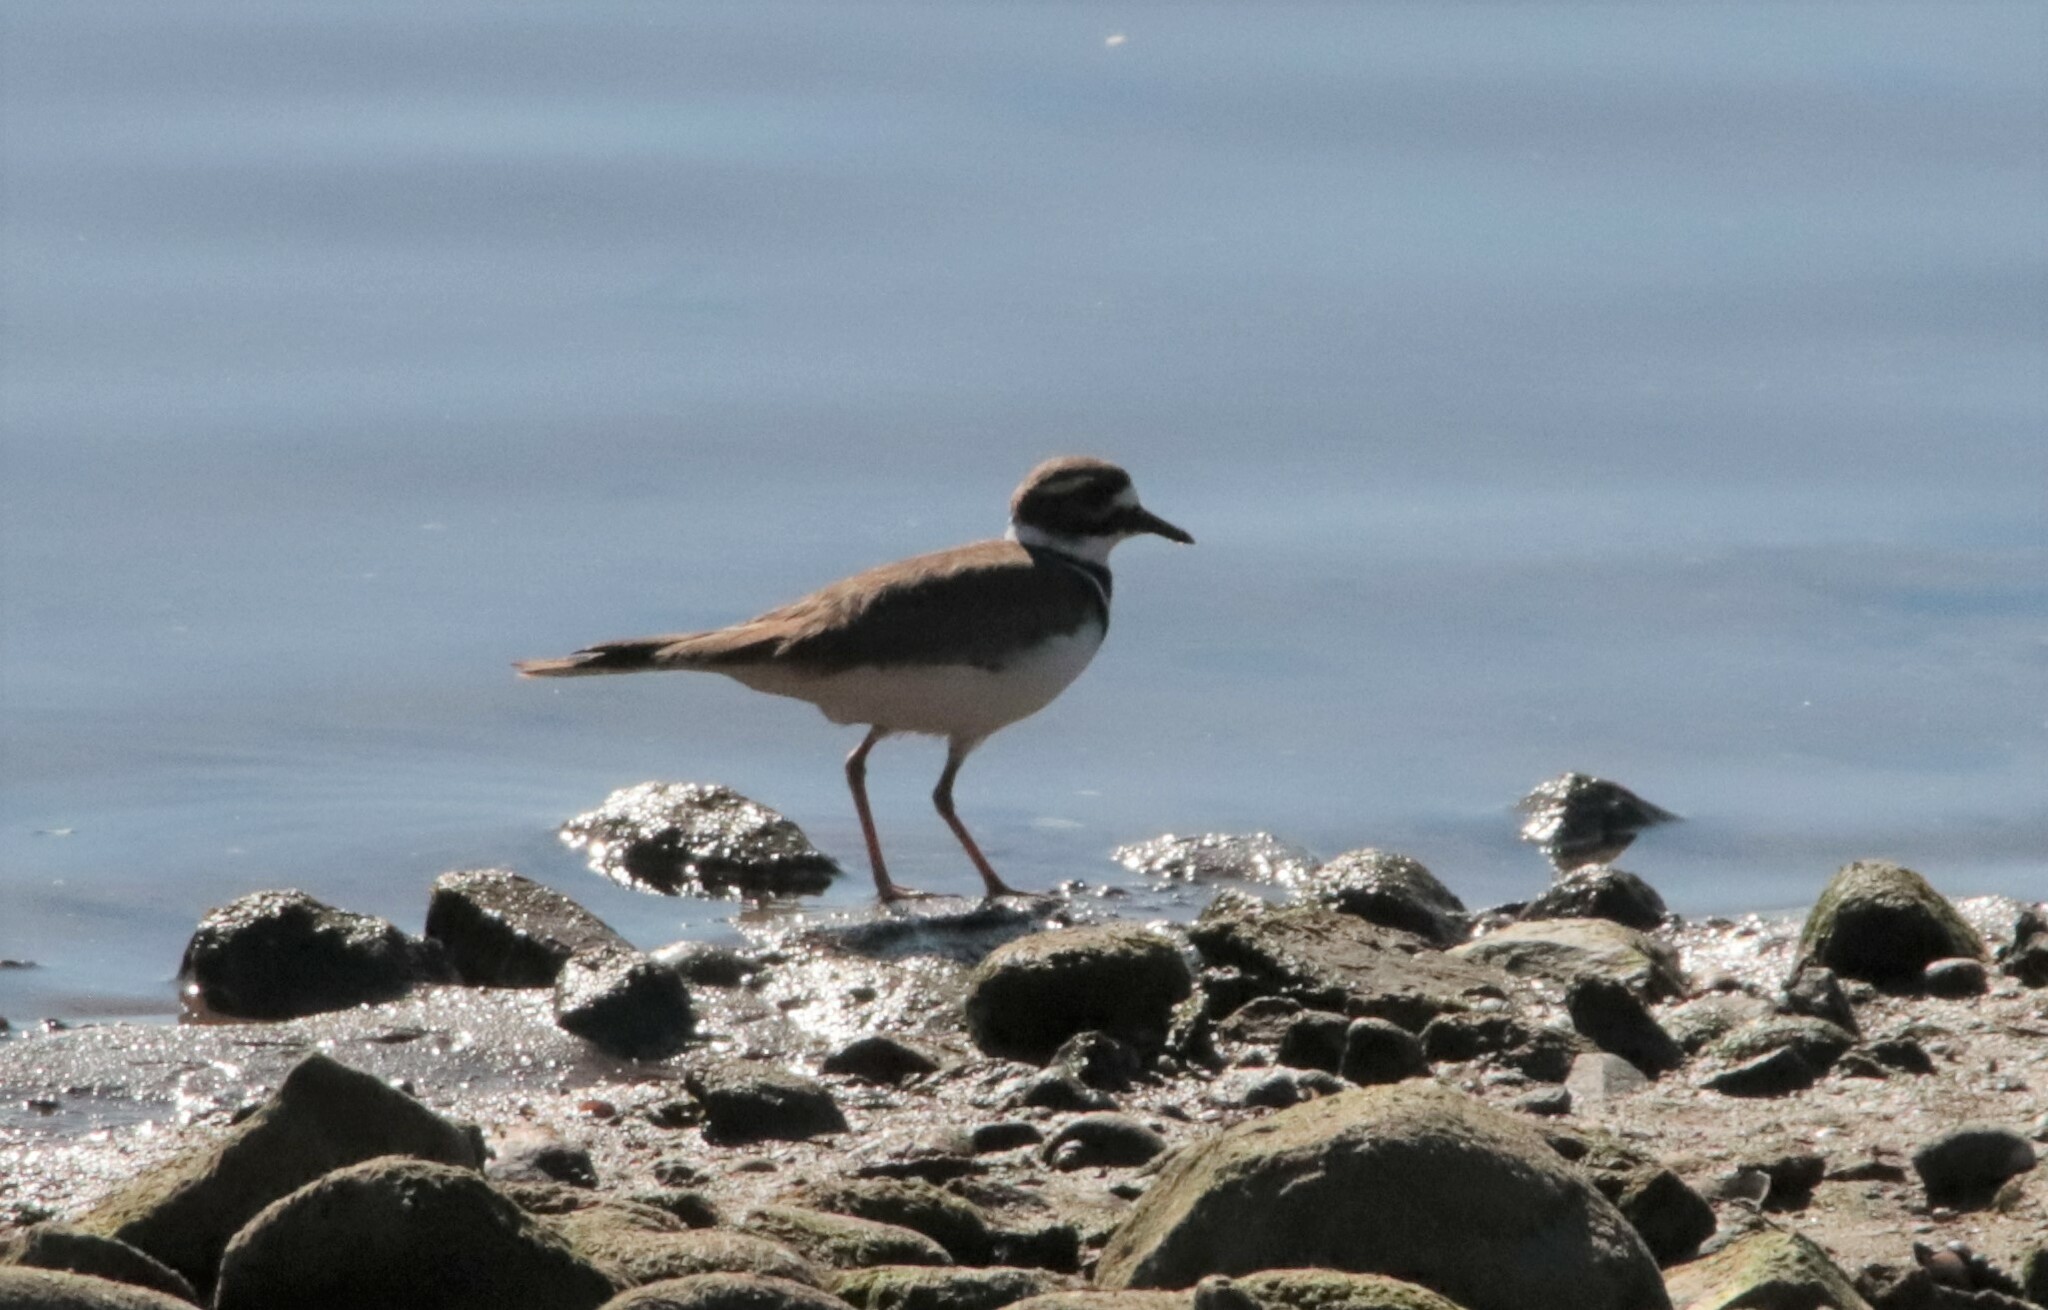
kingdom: Animalia
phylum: Chordata
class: Aves
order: Charadriiformes
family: Charadriidae
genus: Charadrius
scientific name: Charadrius vociferus
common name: Killdeer
